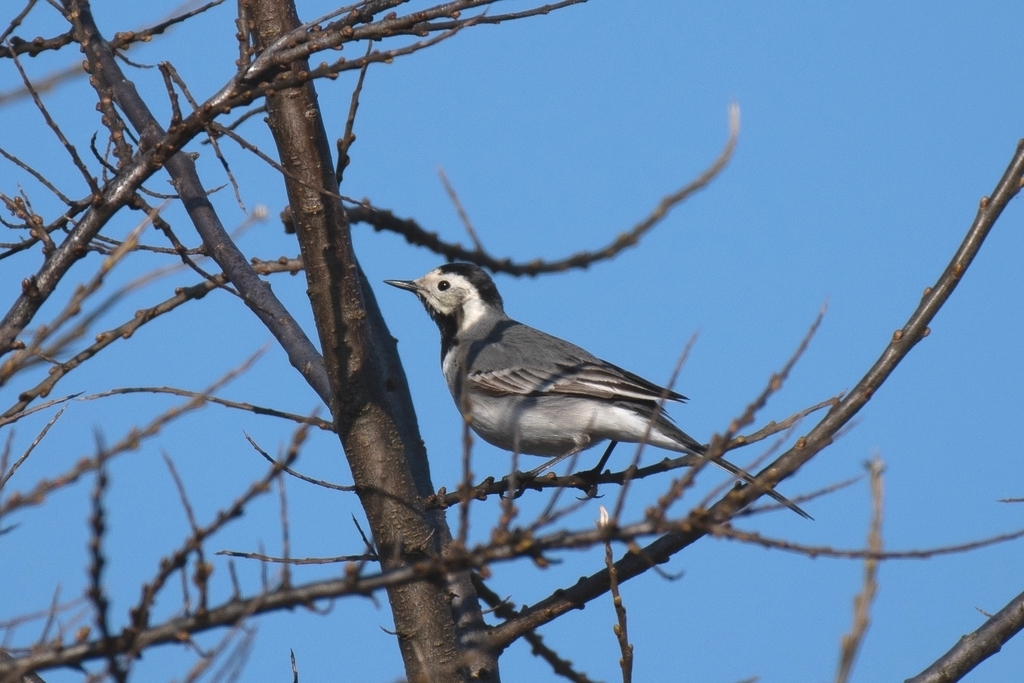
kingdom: Animalia
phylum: Chordata
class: Aves
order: Passeriformes
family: Motacillidae
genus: Motacilla
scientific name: Motacilla alba
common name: White wagtail
